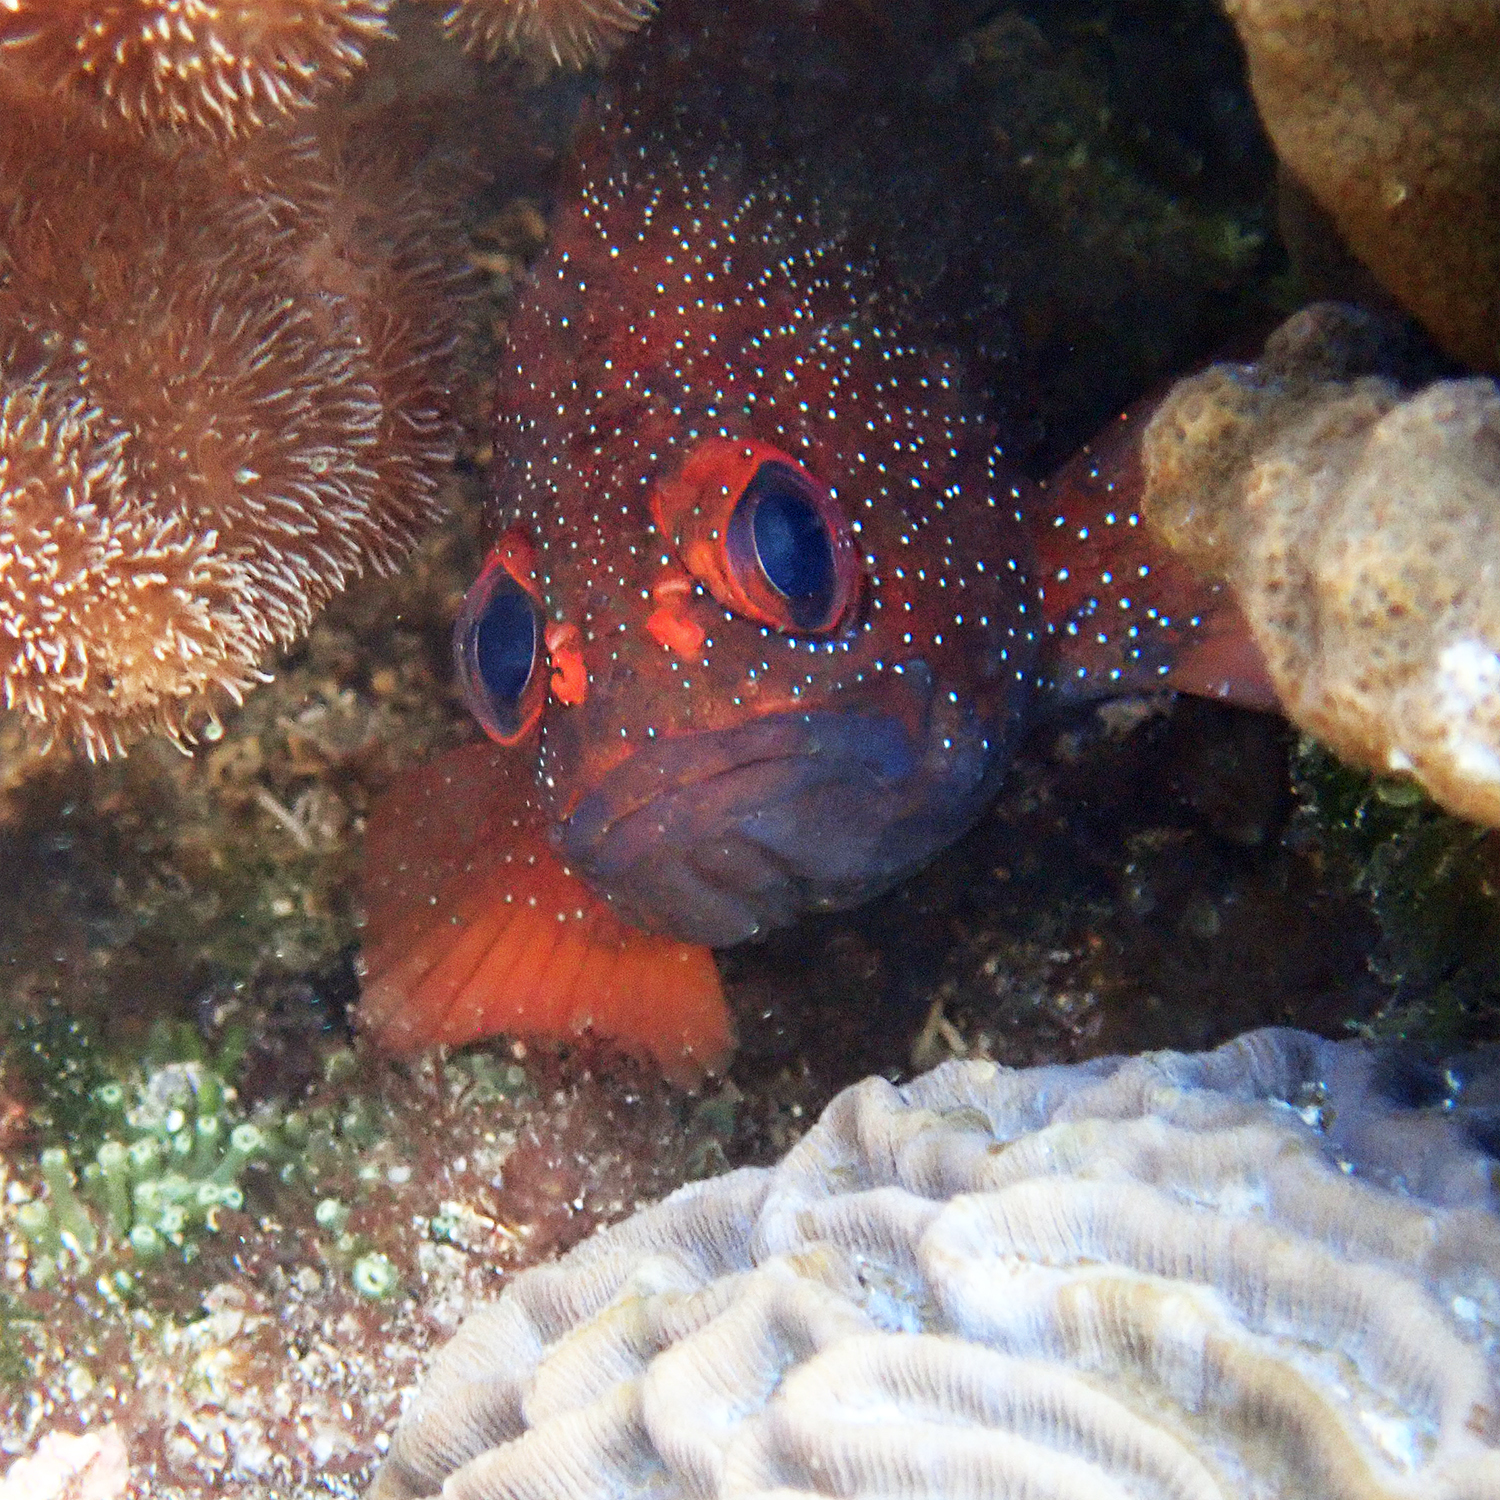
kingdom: Animalia
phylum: Chordata
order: Perciformes
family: Serranidae
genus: Trachypoma
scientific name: Trachypoma macracanthus
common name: Toadstool grouper
